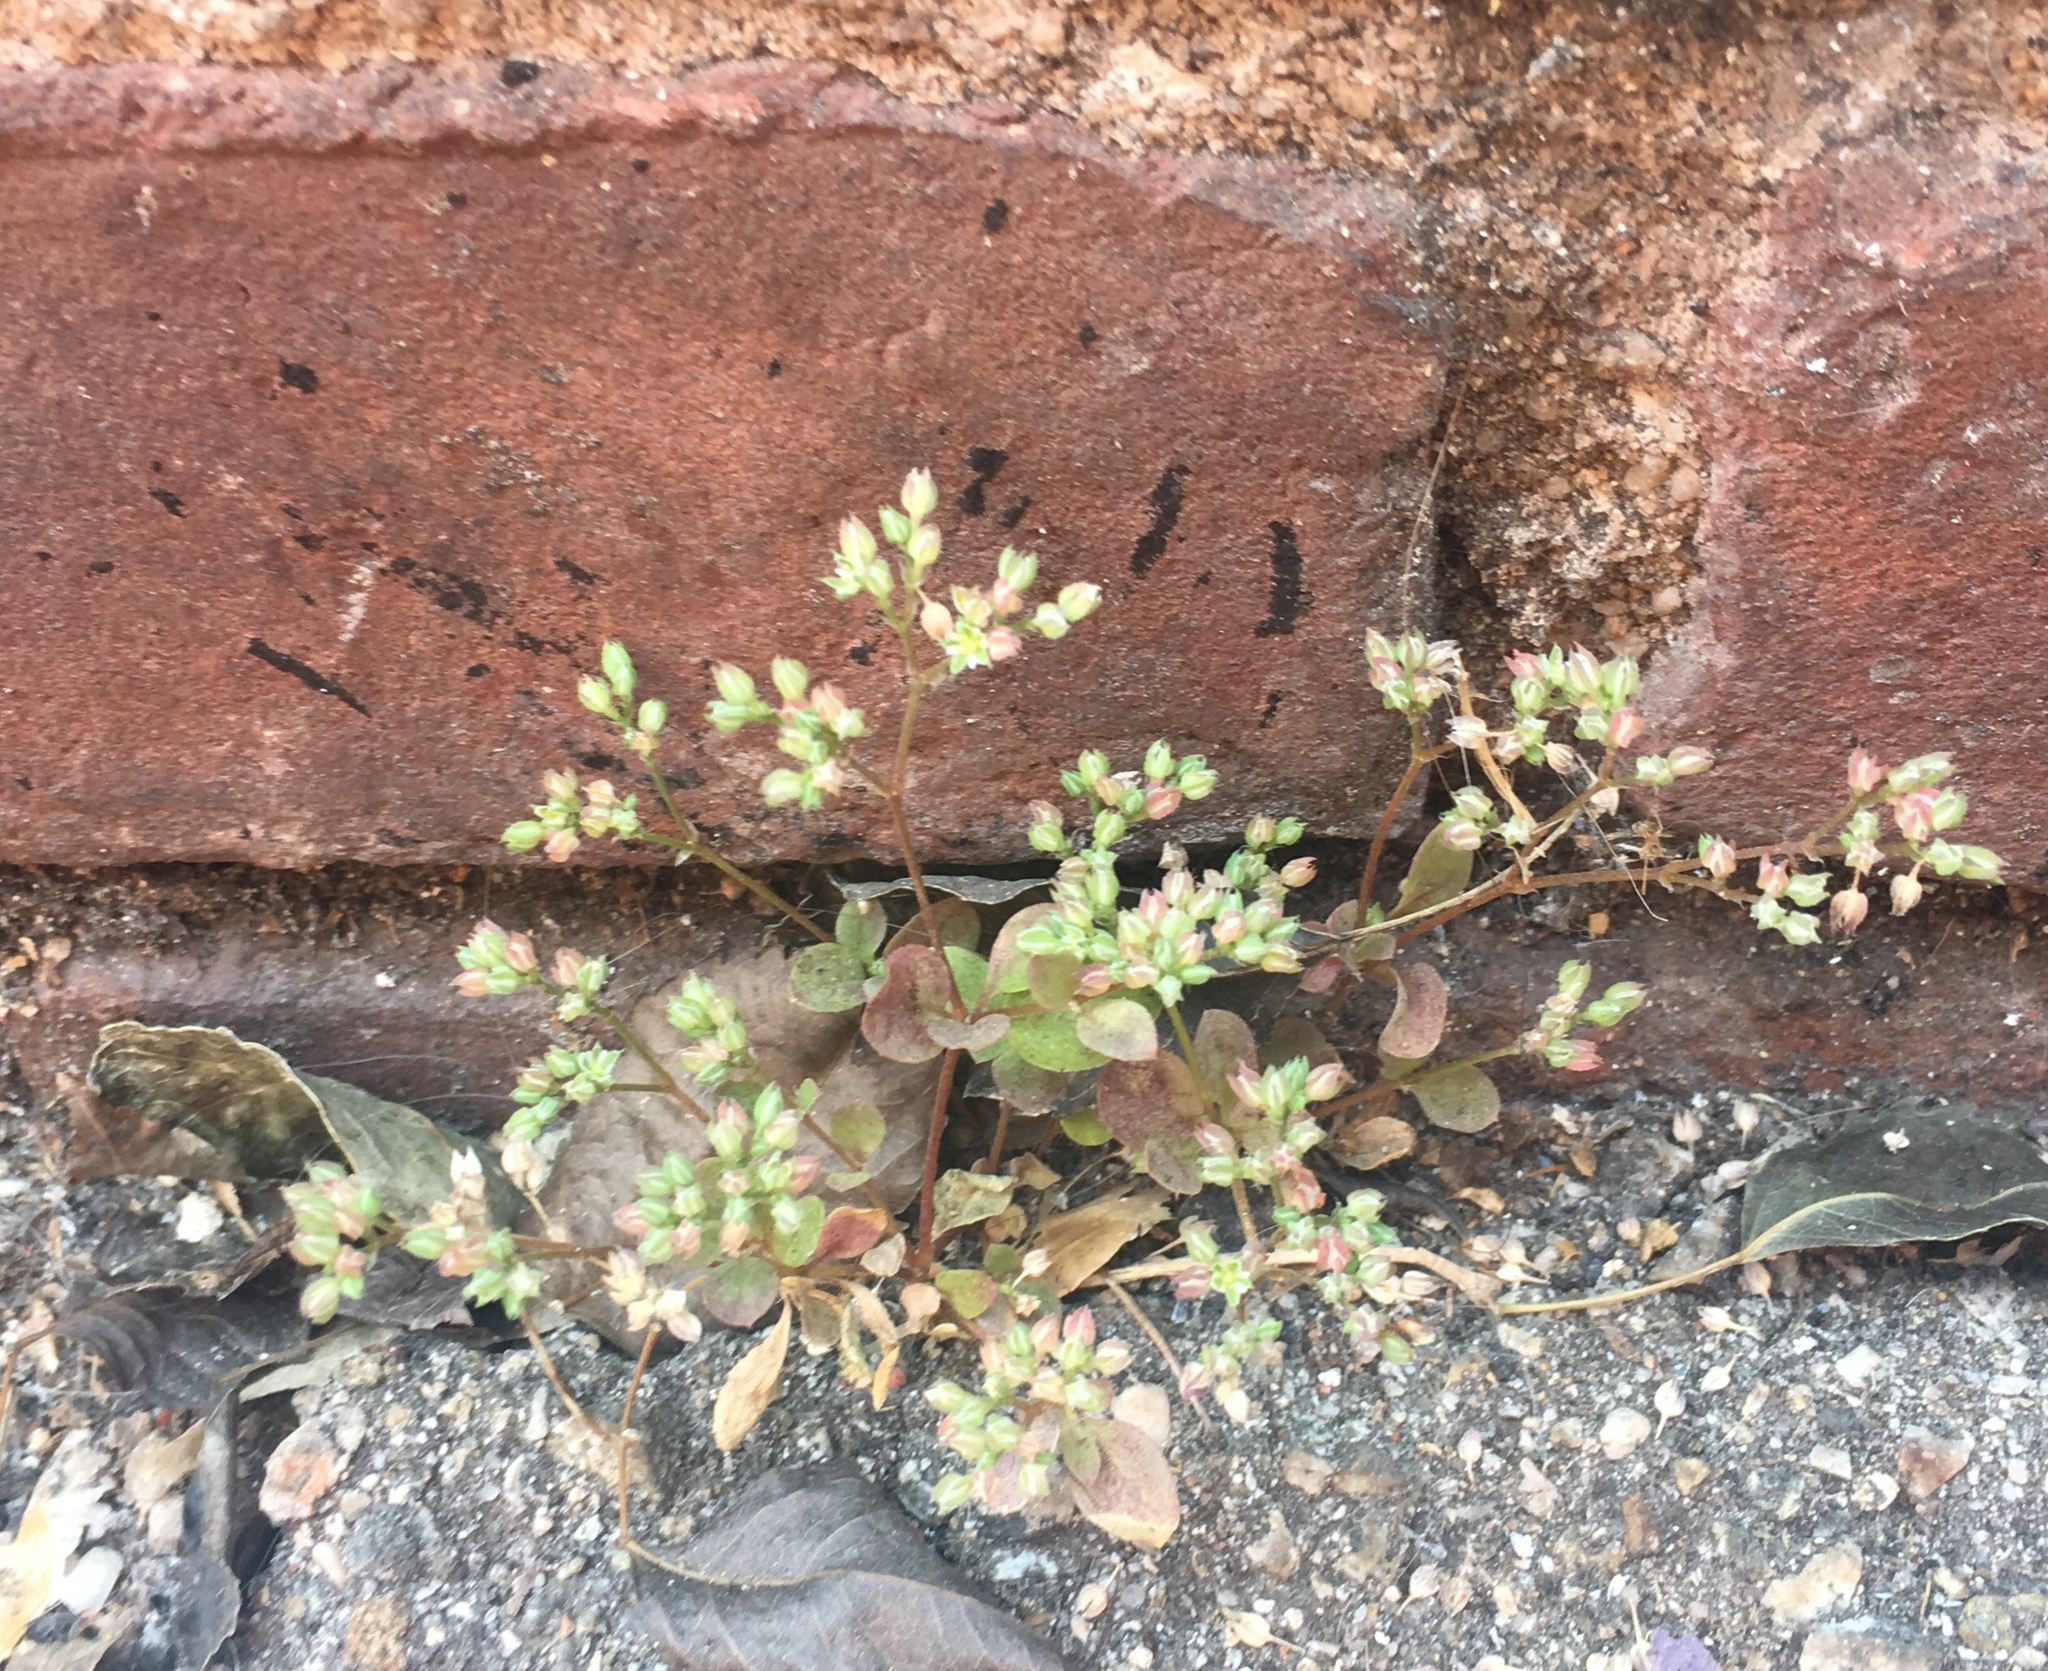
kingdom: Plantae
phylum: Tracheophyta
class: Magnoliopsida
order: Caryophyllales
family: Caryophyllaceae
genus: Polycarpon
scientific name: Polycarpon tetraphyllum
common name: Four-leaved all-seed
